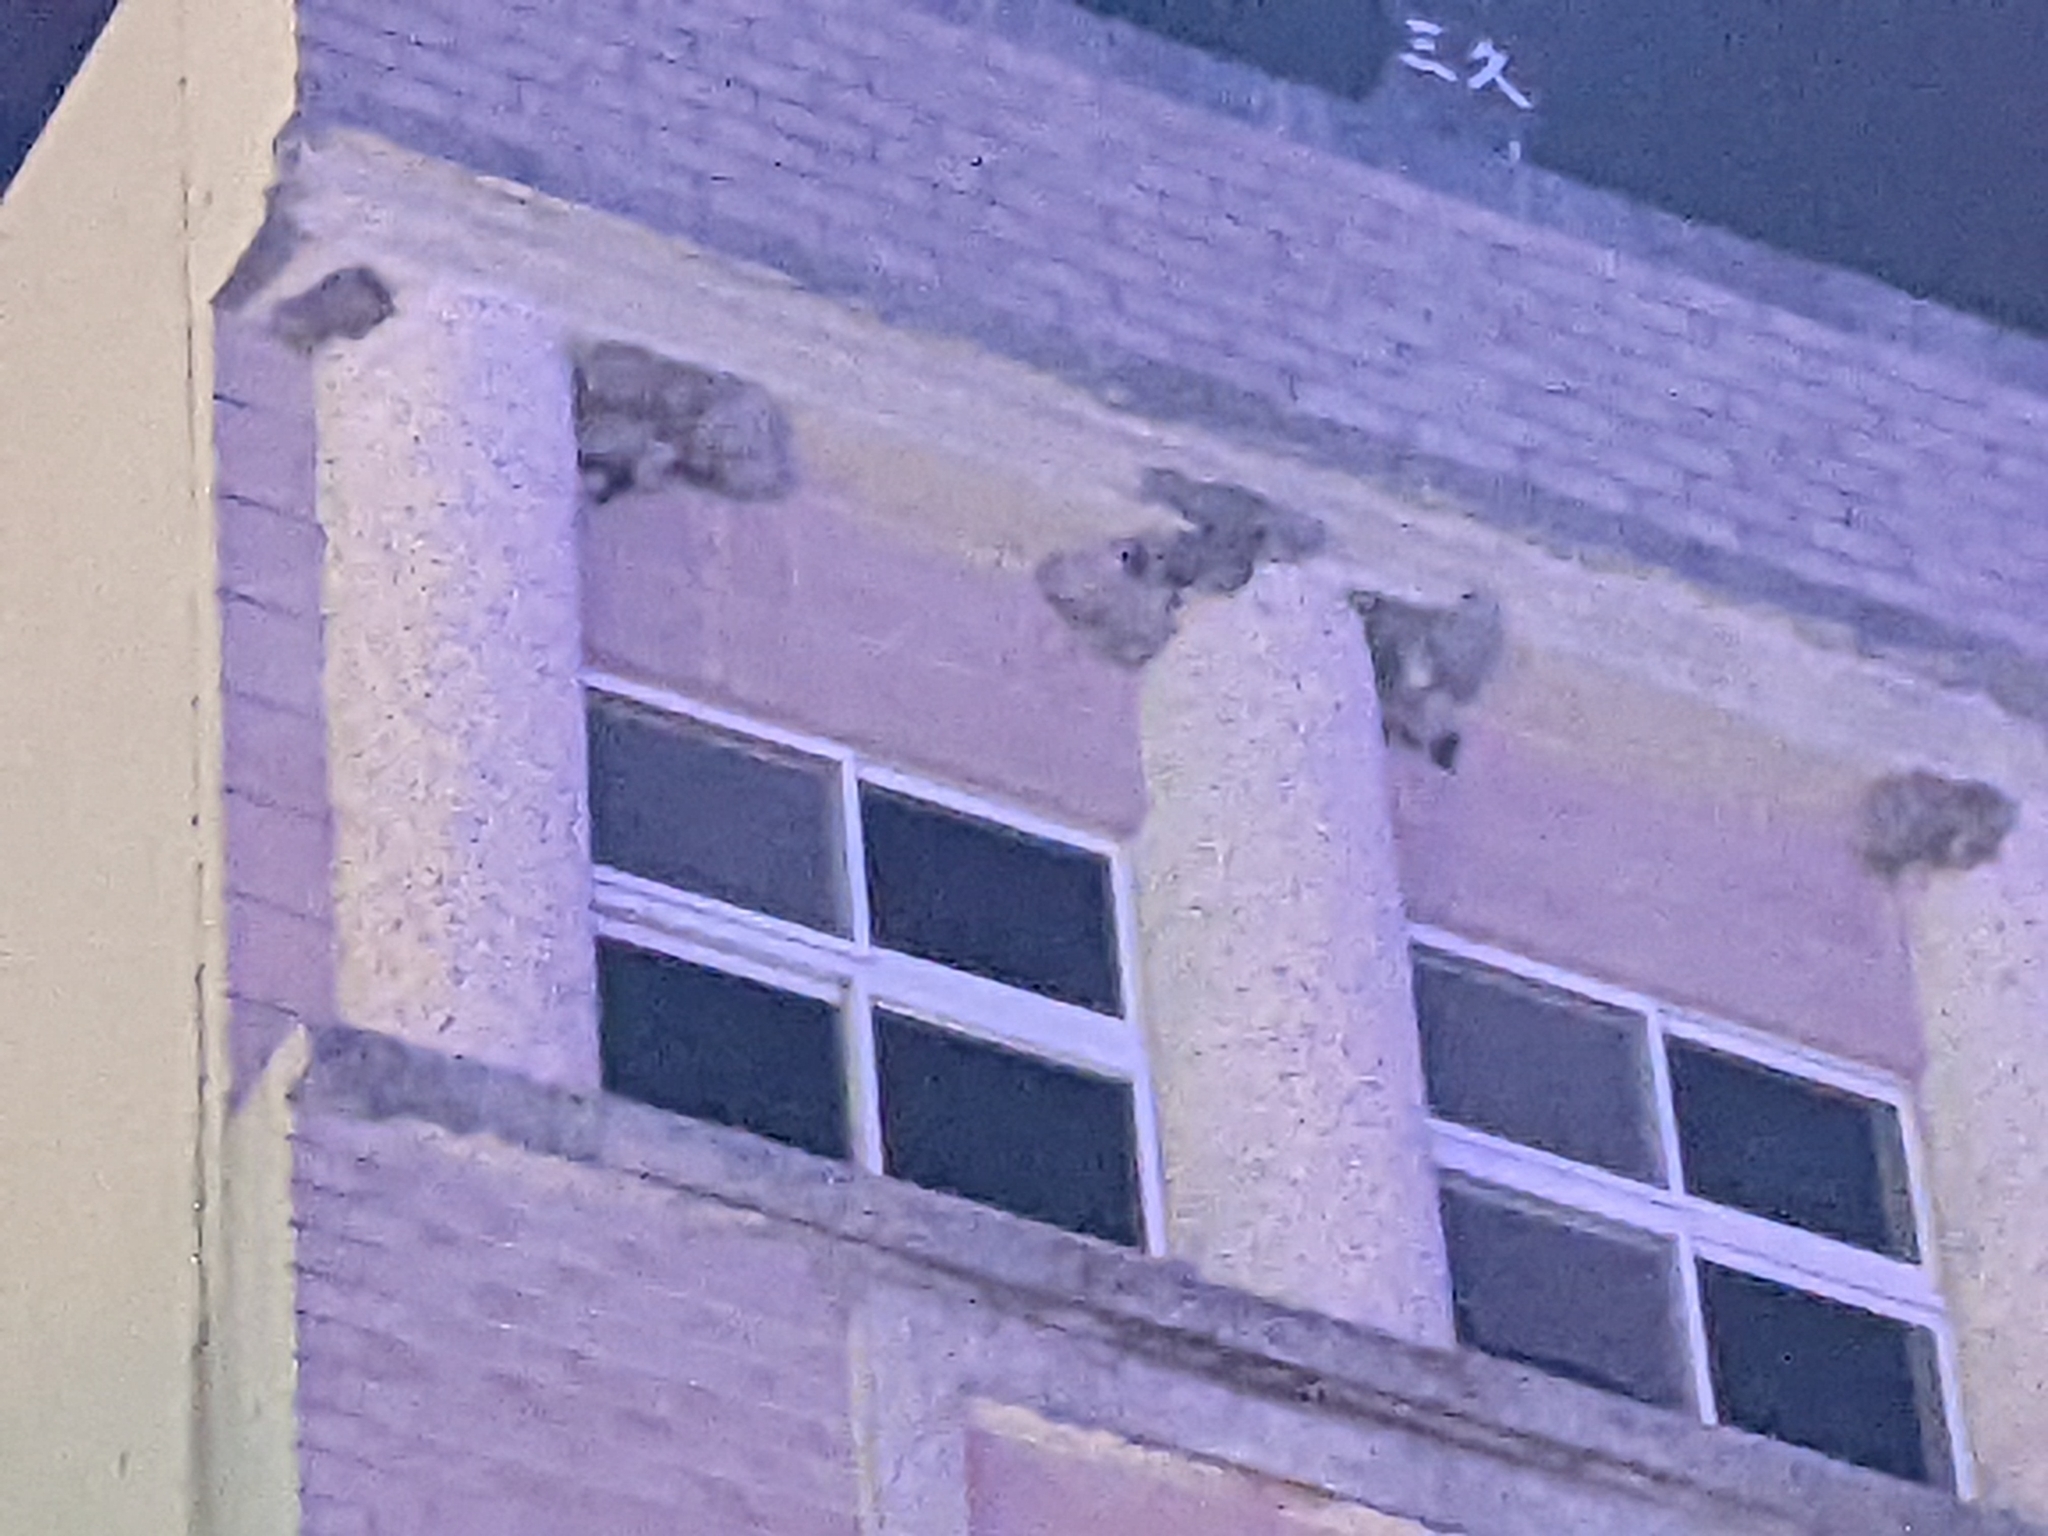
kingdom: Animalia
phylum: Chordata
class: Aves
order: Apodiformes
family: Apodidae
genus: Apus
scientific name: Apus nipalensis
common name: House swift
